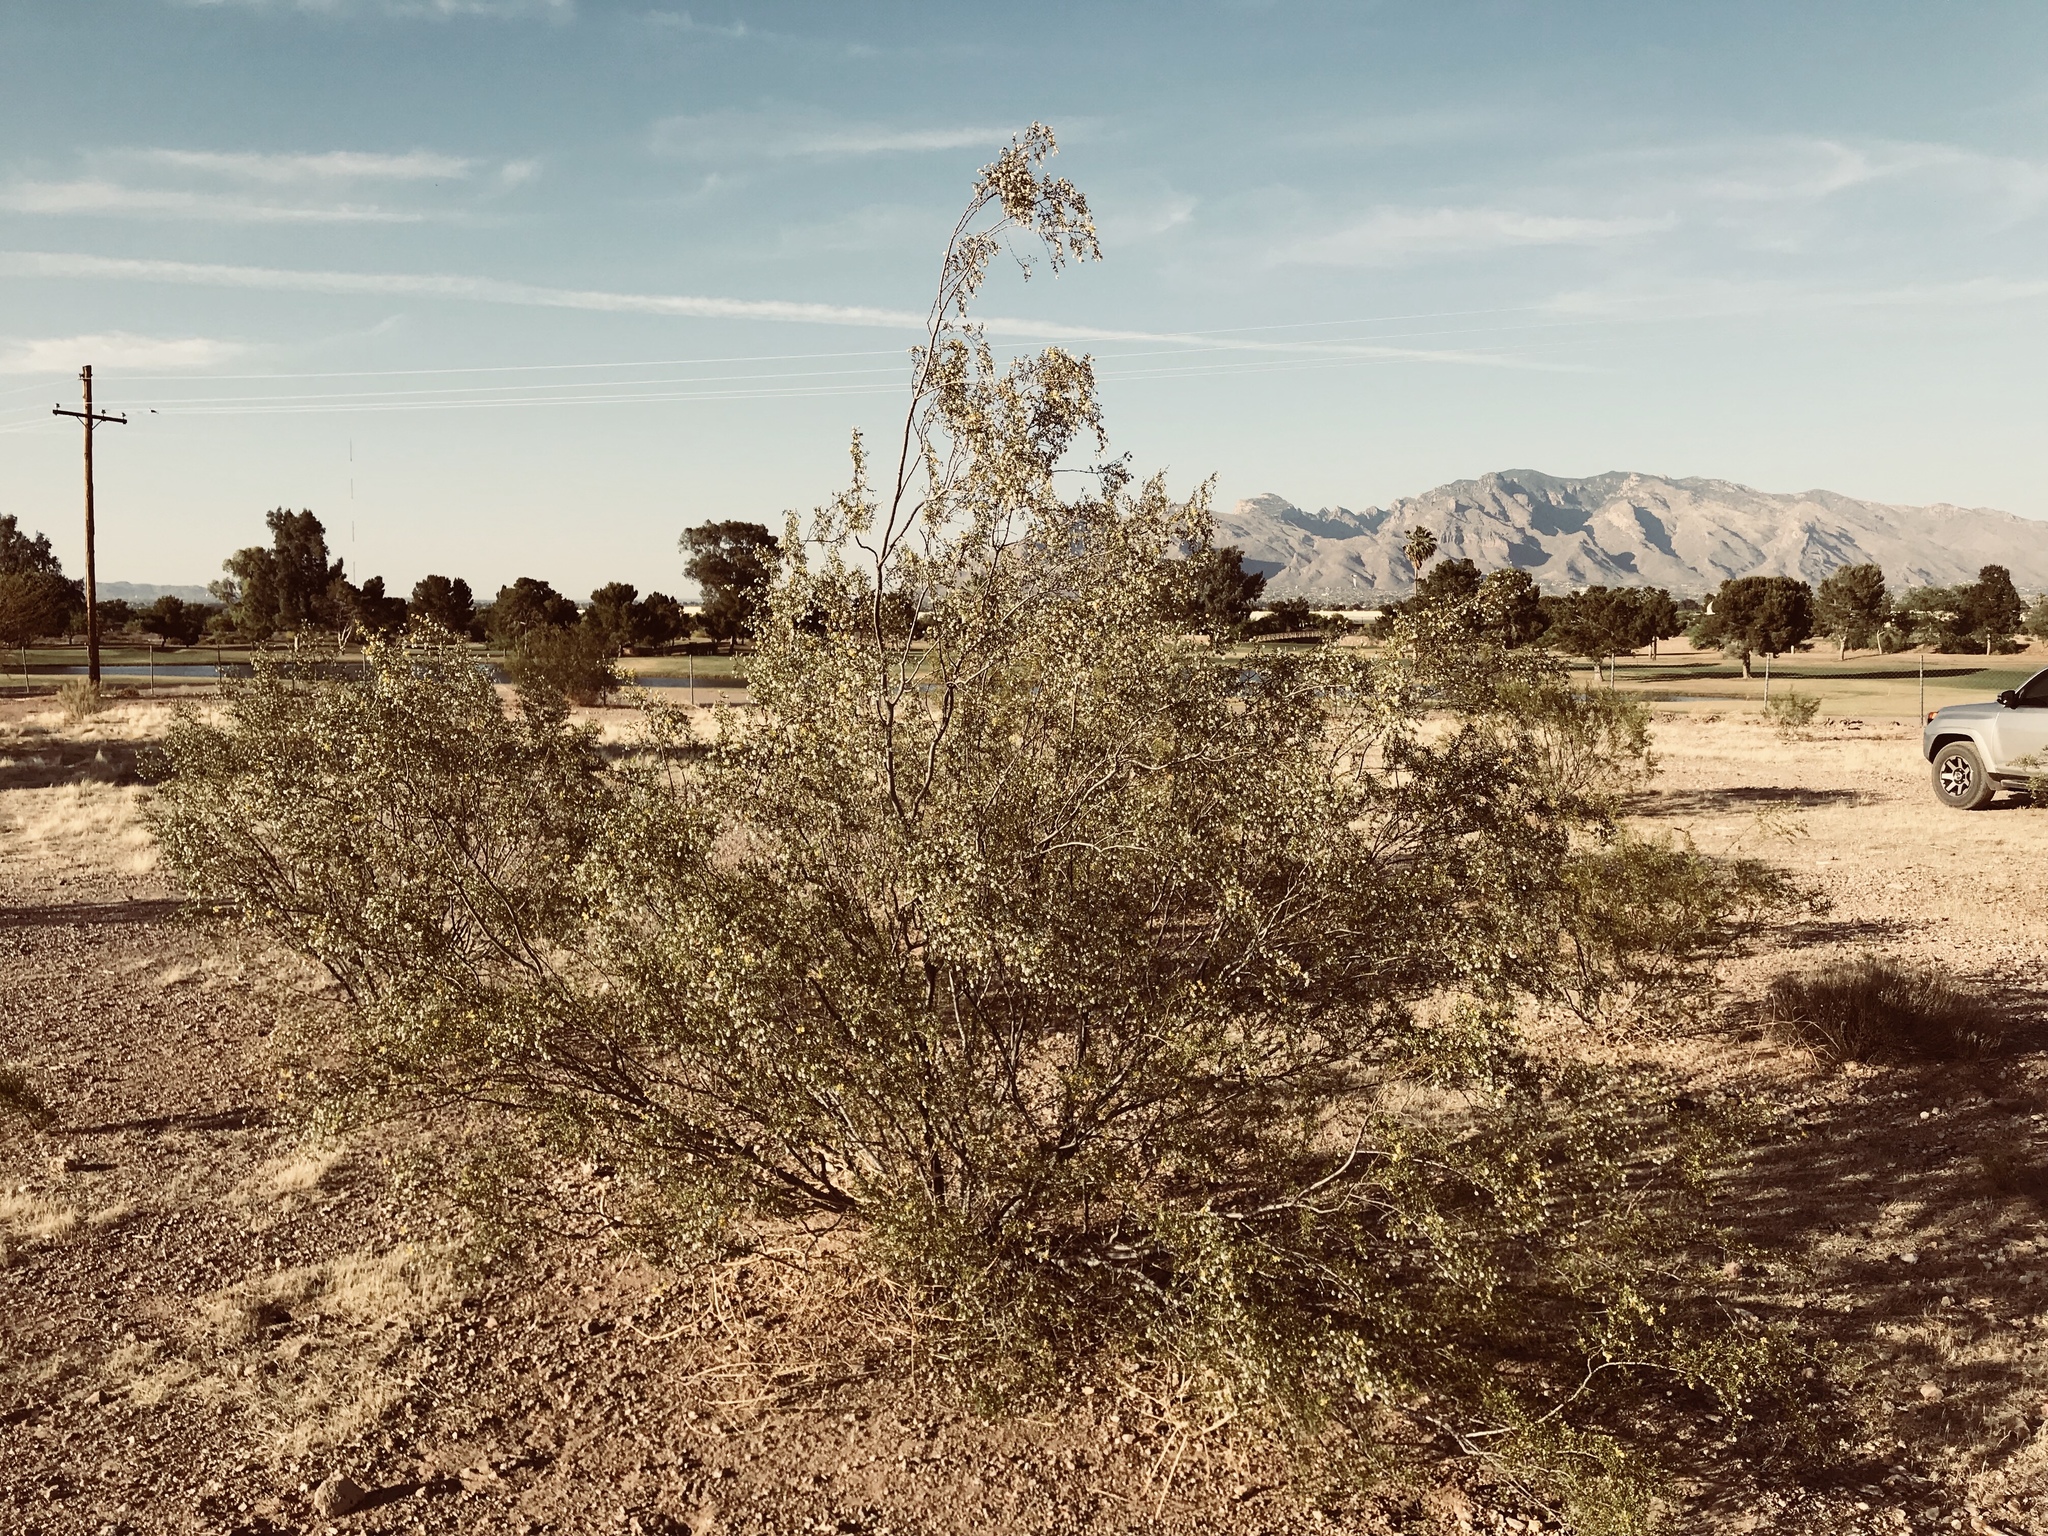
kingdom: Plantae
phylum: Tracheophyta
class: Magnoliopsida
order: Zygophyllales
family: Zygophyllaceae
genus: Larrea
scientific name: Larrea tridentata
